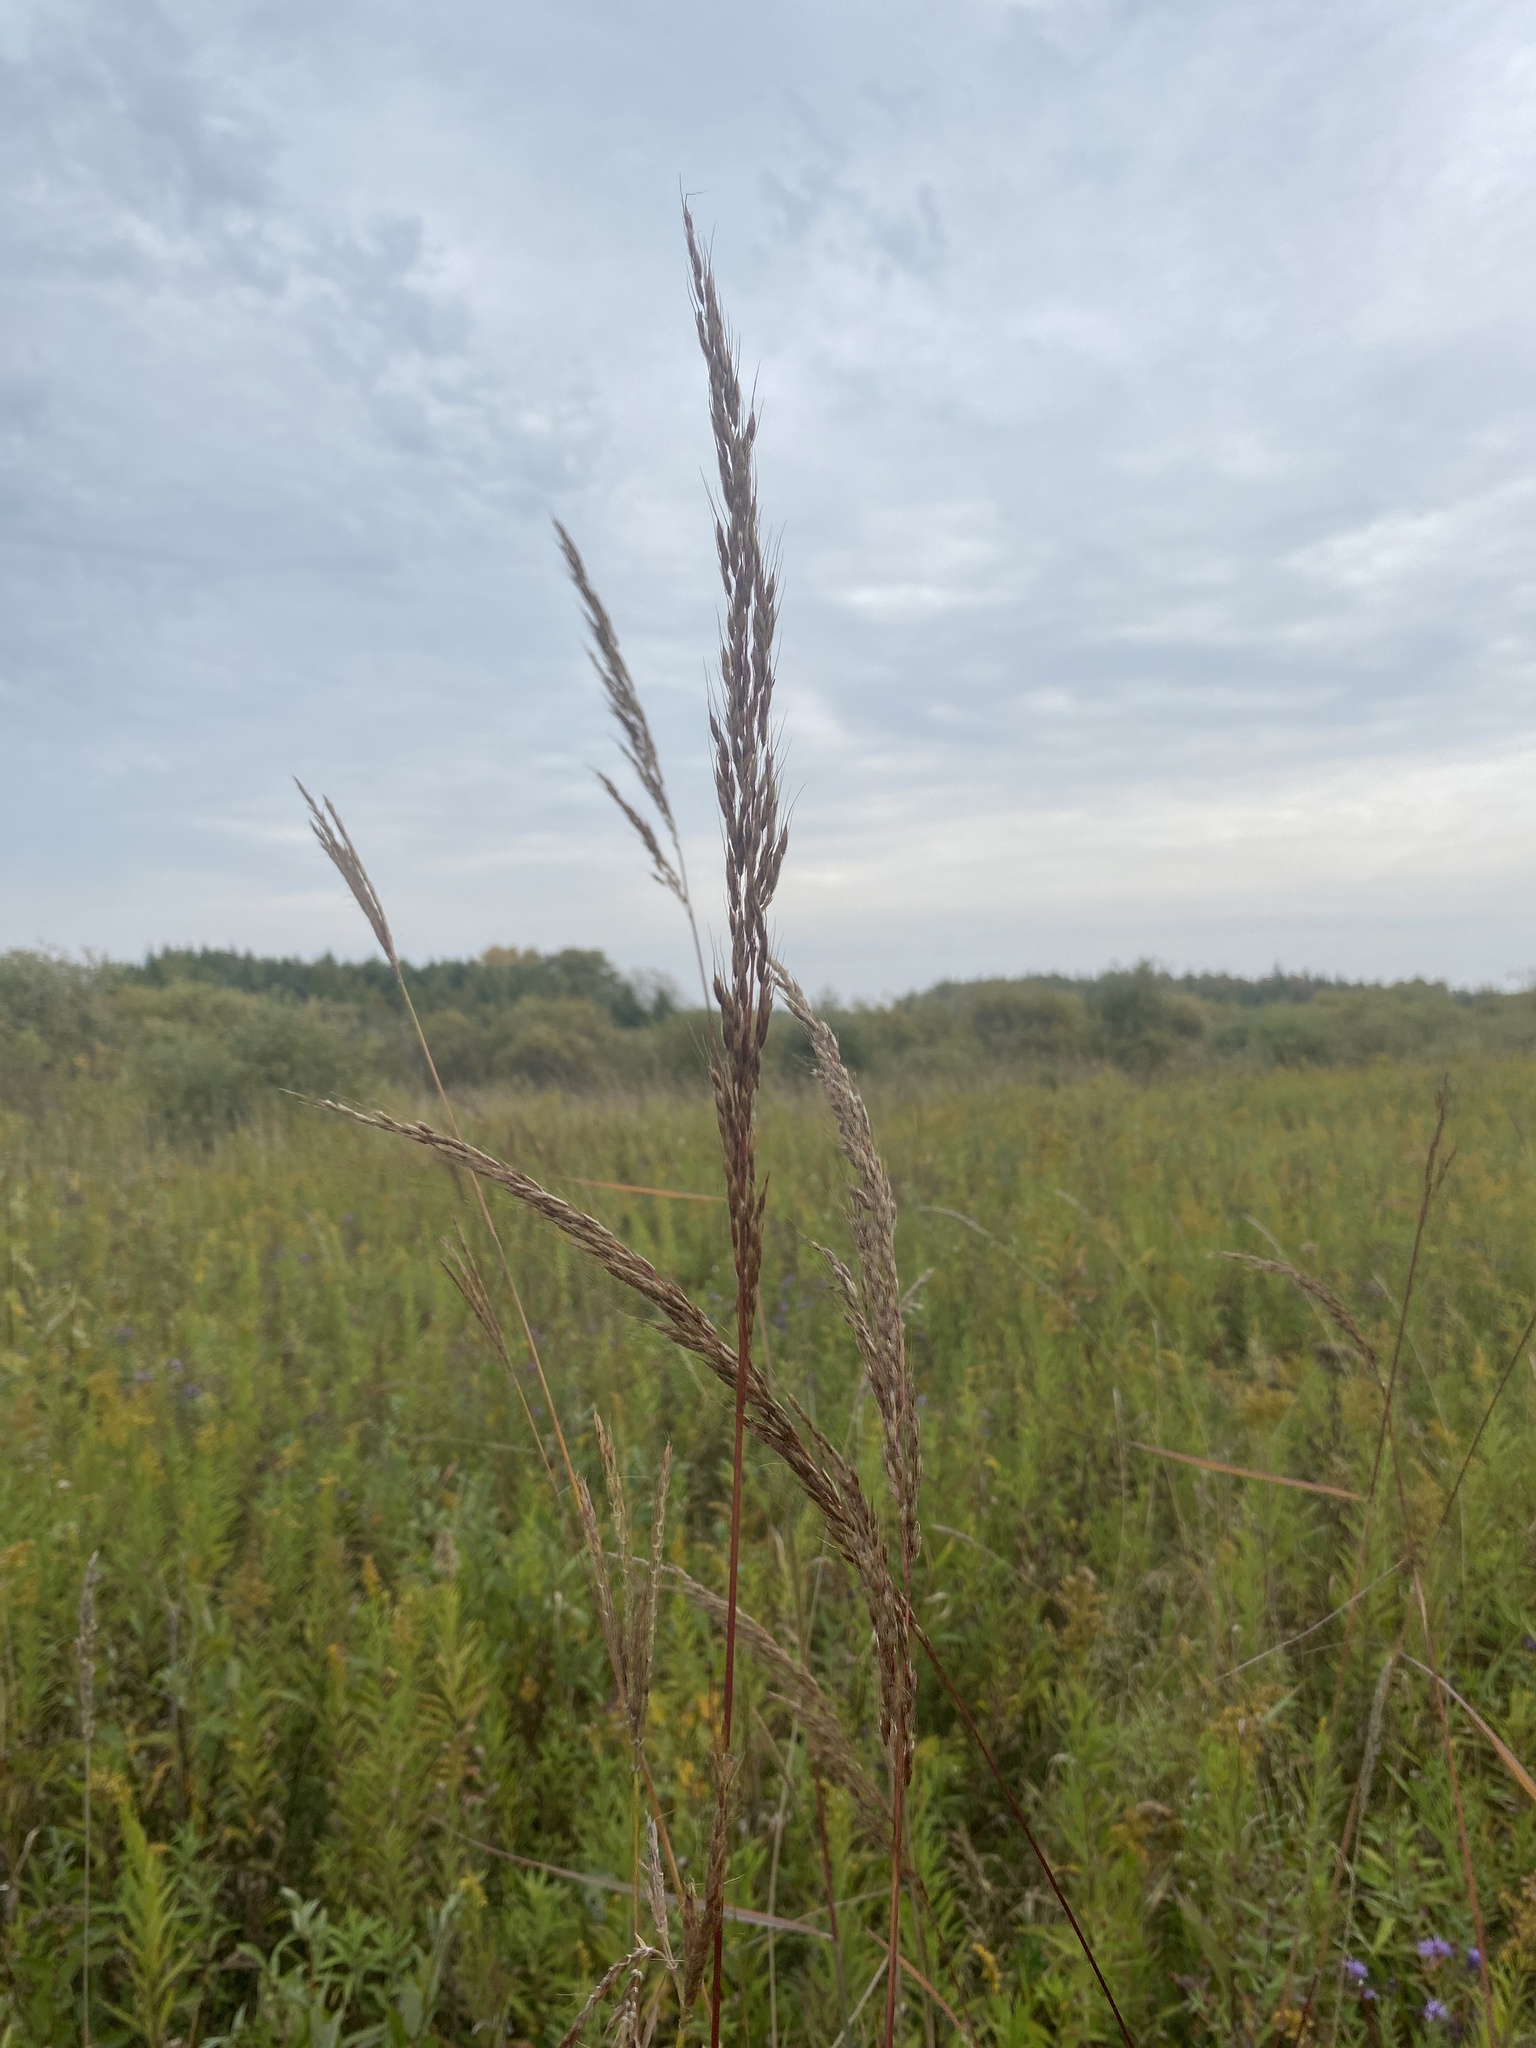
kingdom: Plantae
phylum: Tracheophyta
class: Liliopsida
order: Poales
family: Poaceae
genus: Sorghastrum
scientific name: Sorghastrum nutans
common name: Indian grass
